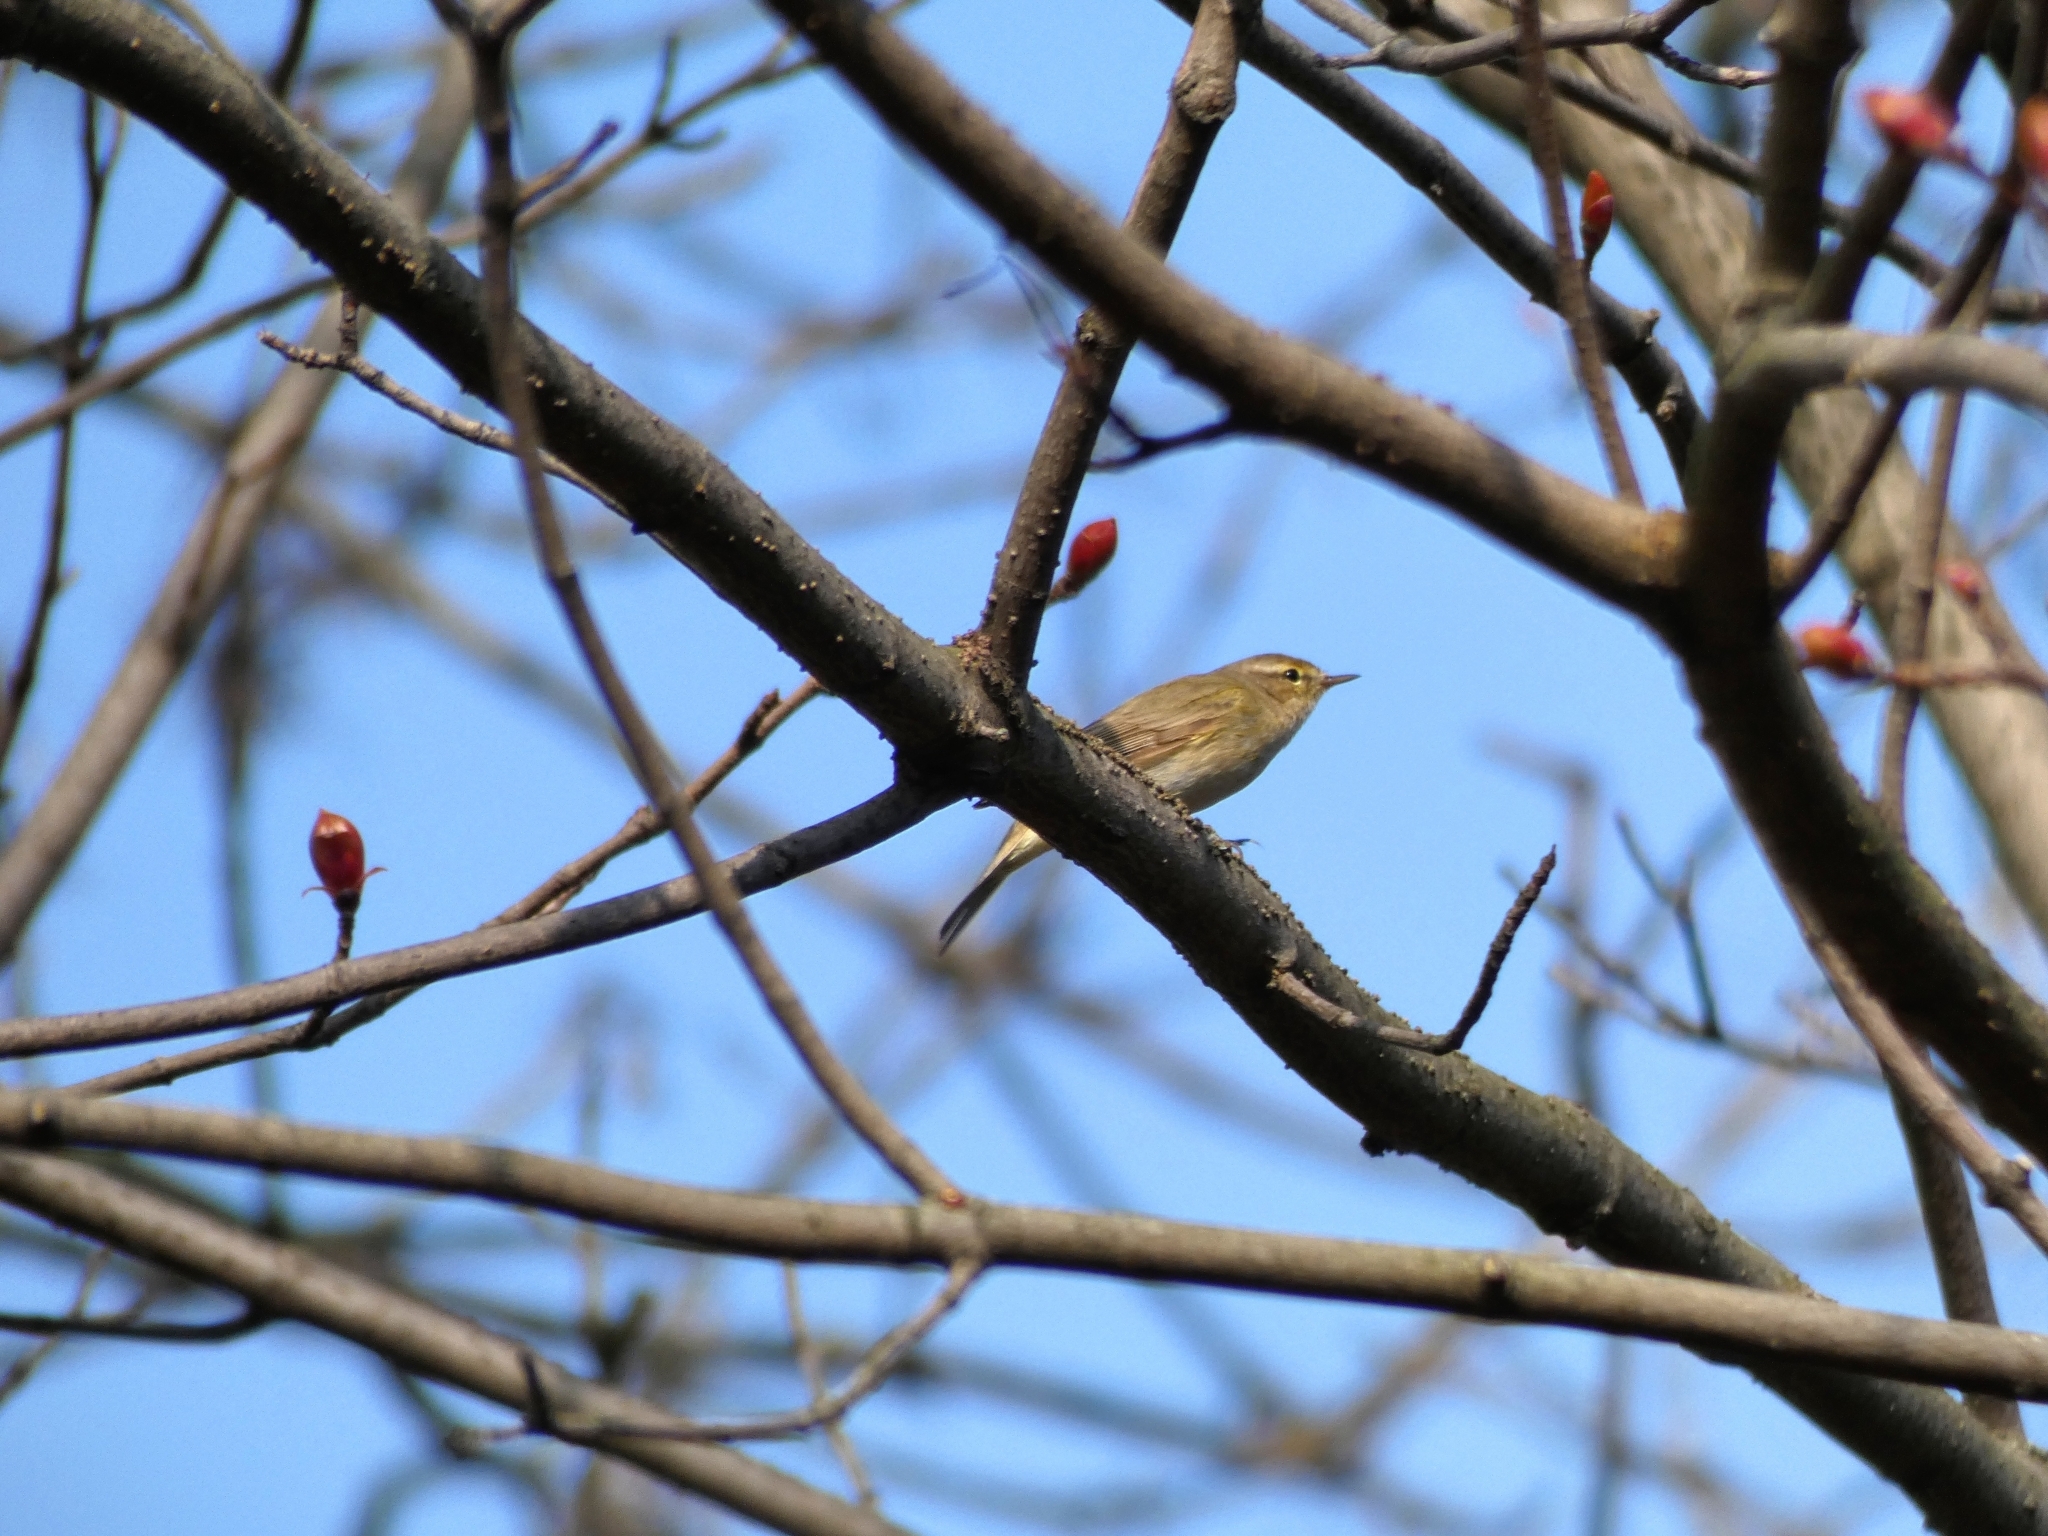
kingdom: Animalia
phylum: Chordata
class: Aves
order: Passeriformes
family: Phylloscopidae
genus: Phylloscopus
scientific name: Phylloscopus collybita
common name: Common chiffchaff
